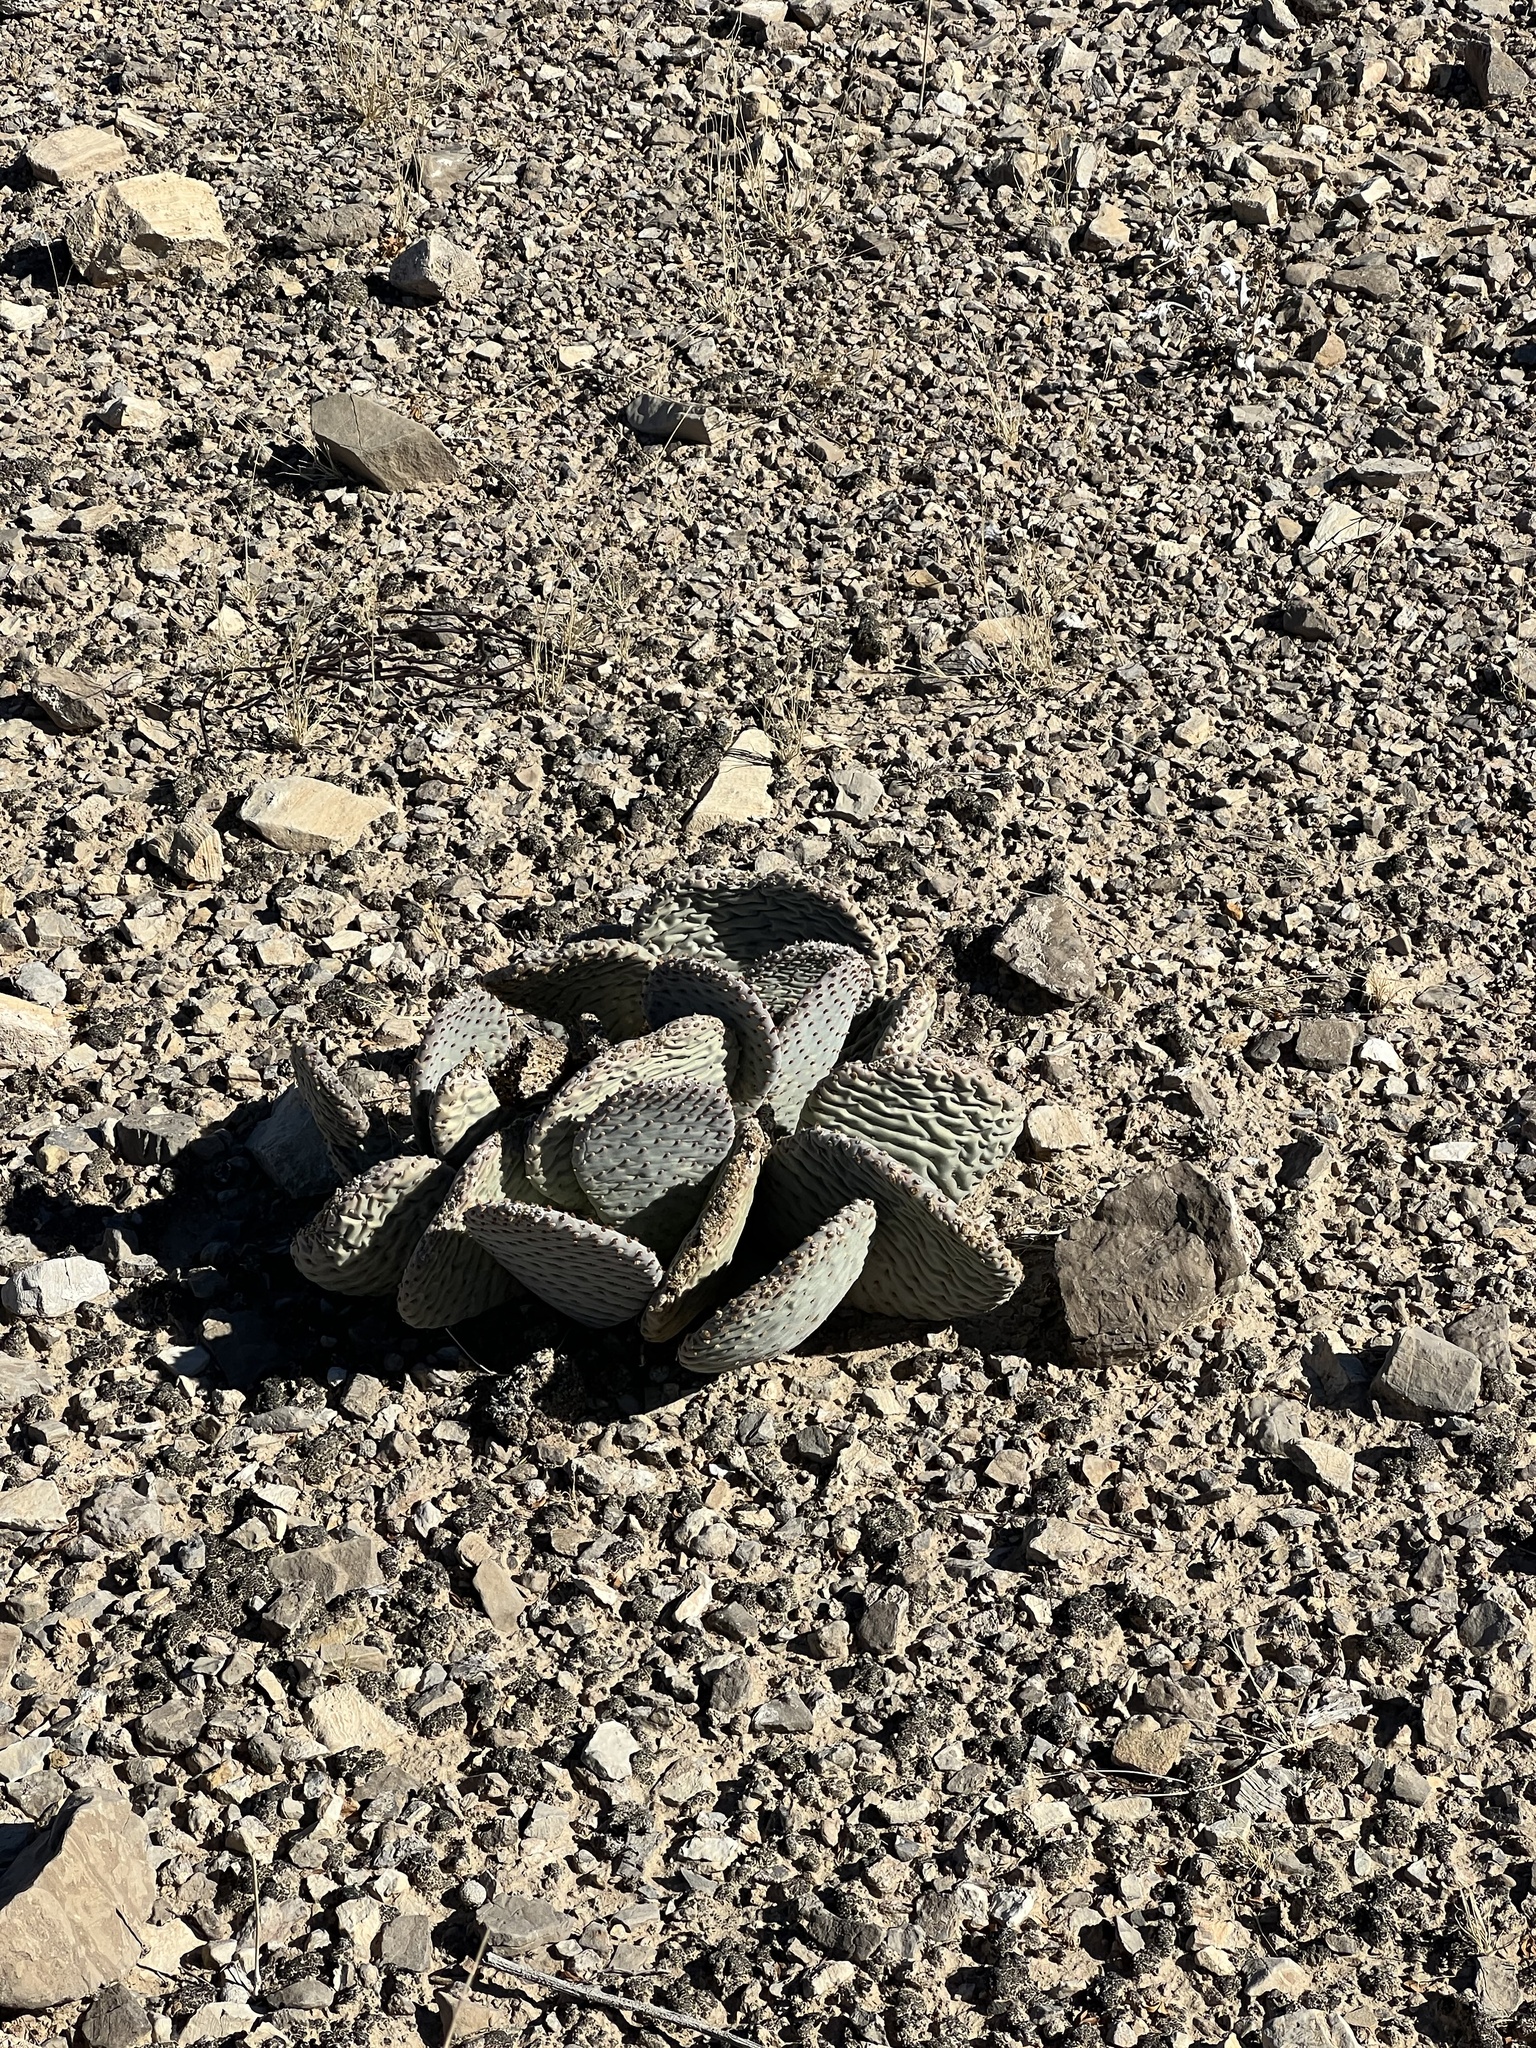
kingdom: Plantae
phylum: Tracheophyta
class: Magnoliopsida
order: Caryophyllales
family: Cactaceae
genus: Opuntia
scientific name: Opuntia basilaris
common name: Beavertail prickly-pear
